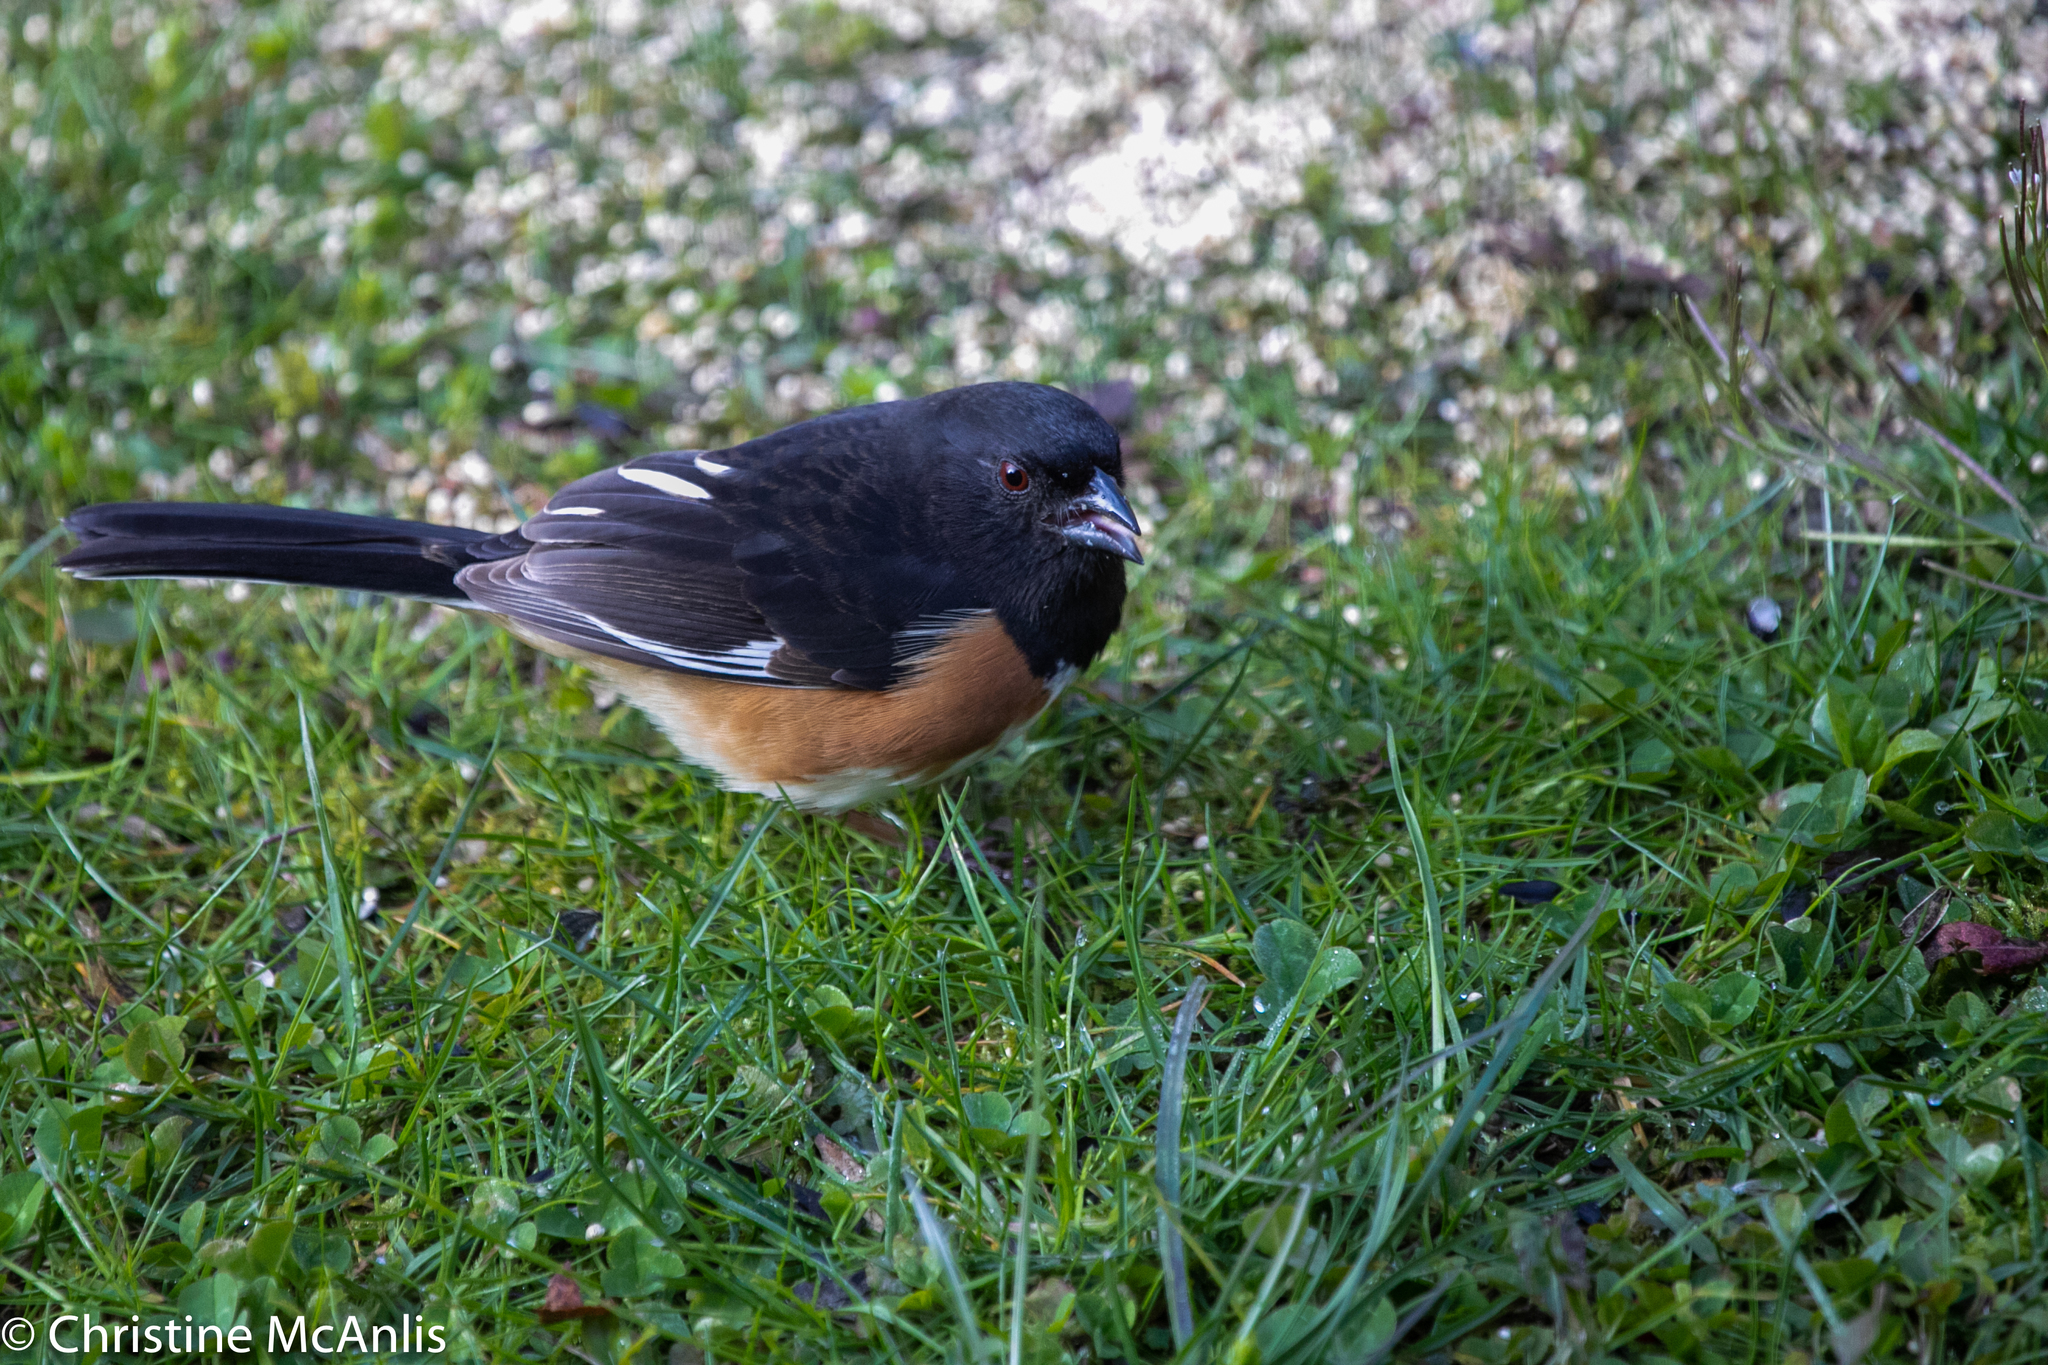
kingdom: Animalia
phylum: Chordata
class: Aves
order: Passeriformes
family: Passerellidae
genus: Pipilo
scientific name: Pipilo erythrophthalmus
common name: Eastern towhee
